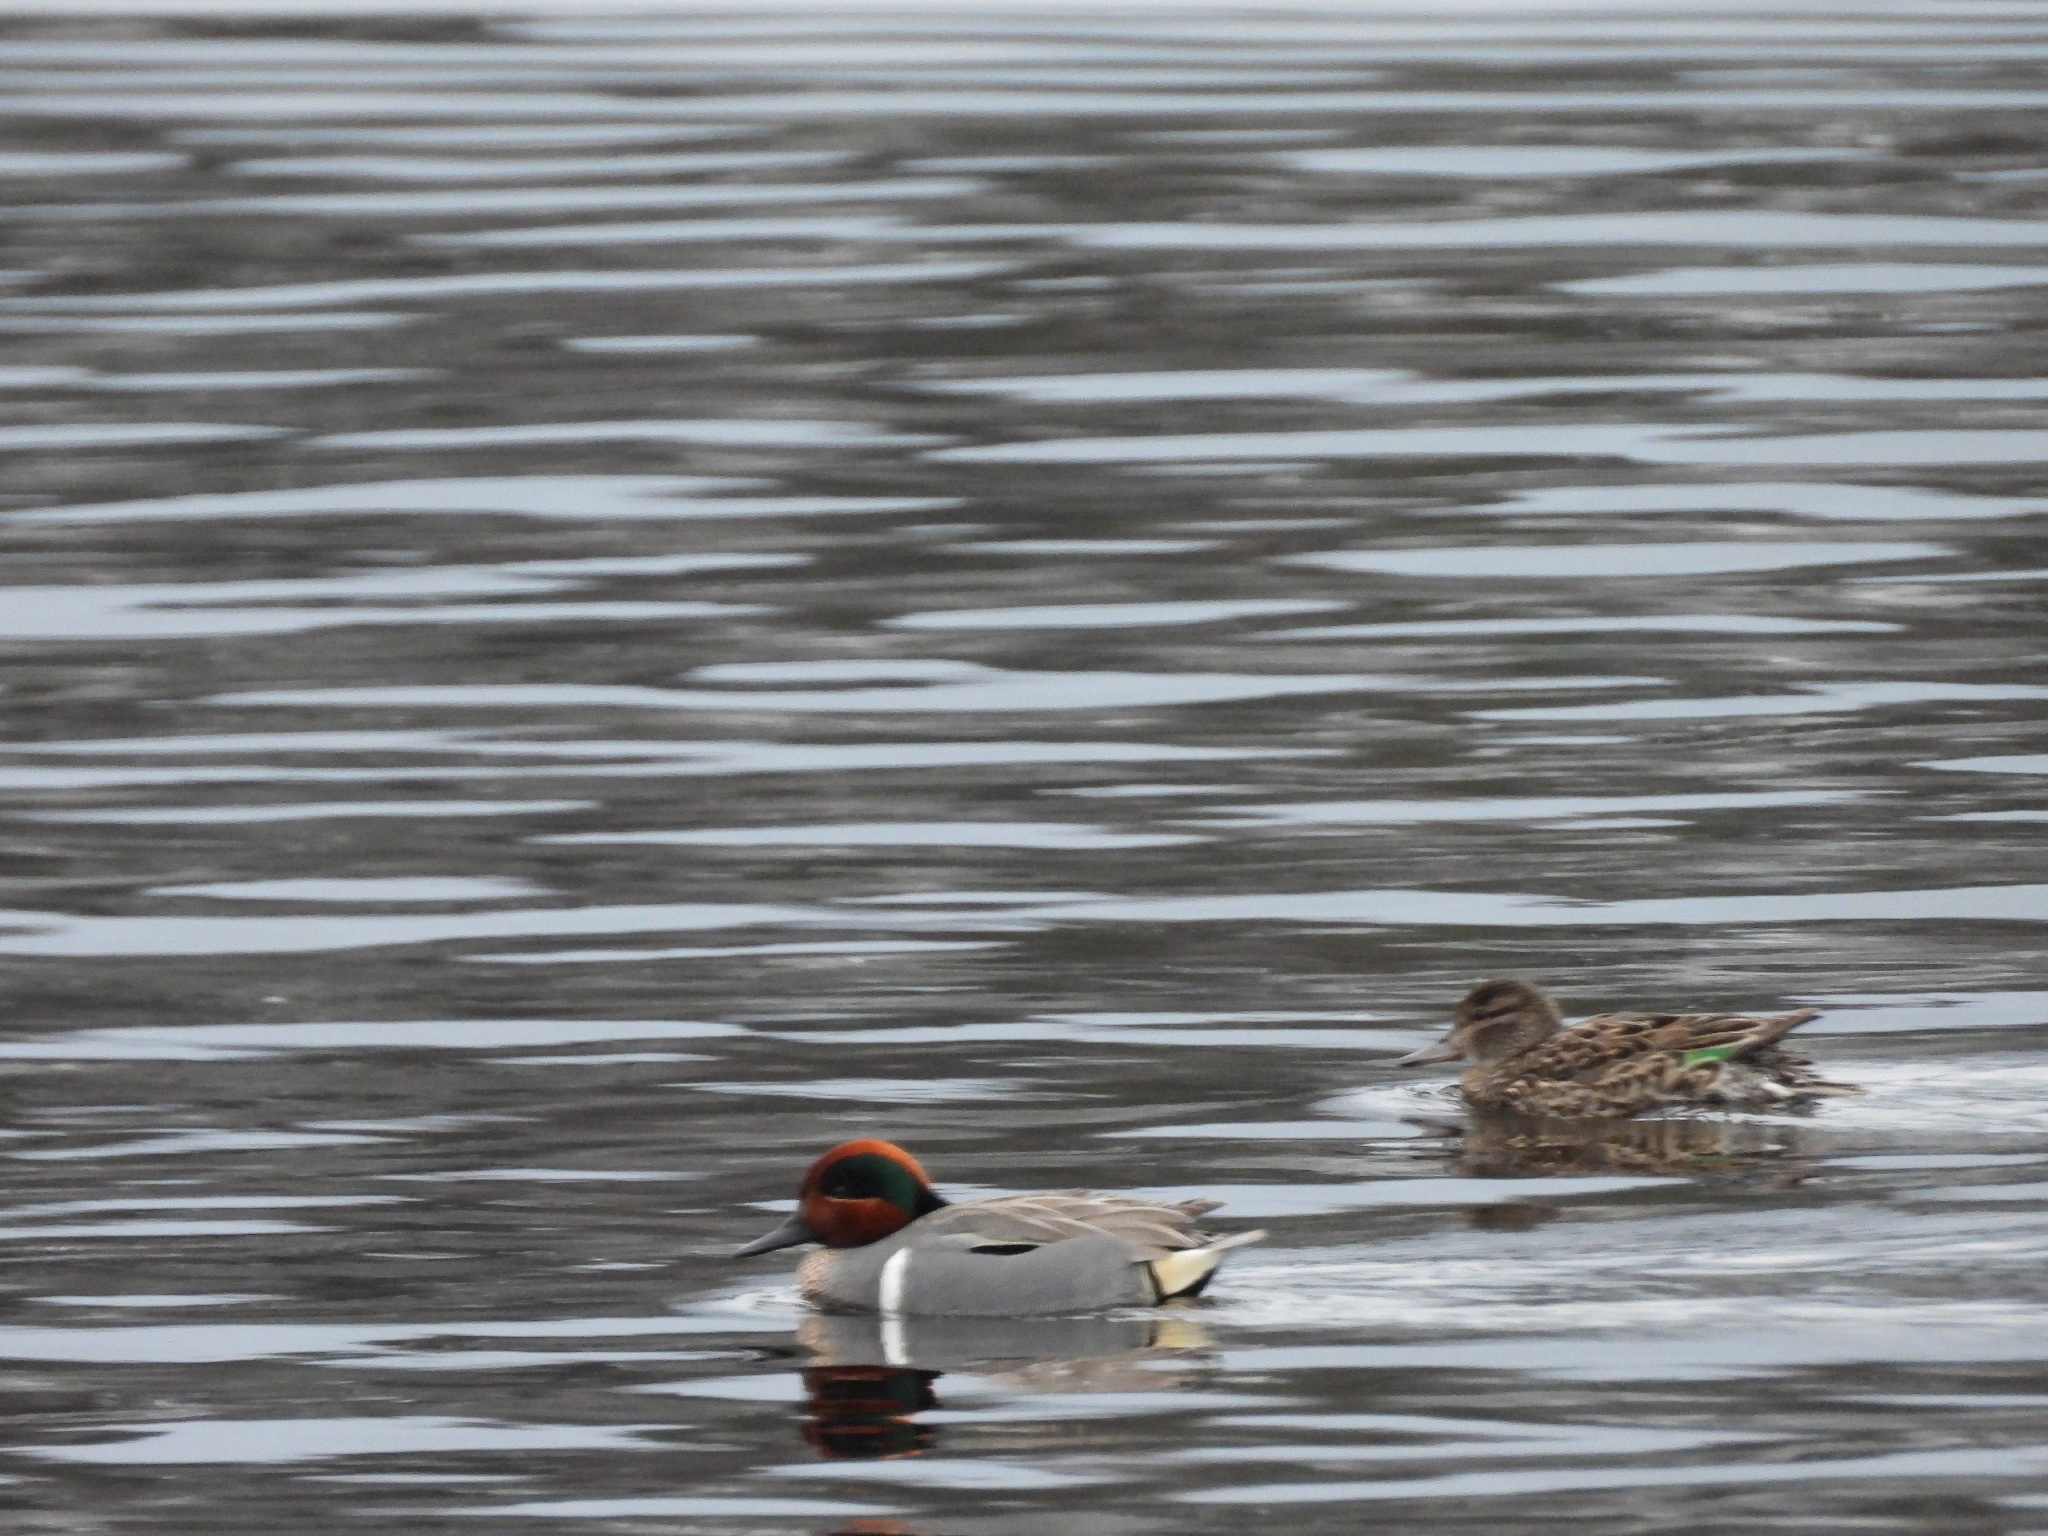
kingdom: Animalia
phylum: Chordata
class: Aves
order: Anseriformes
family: Anatidae
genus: Anas
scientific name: Anas crecca
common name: Eurasian teal
